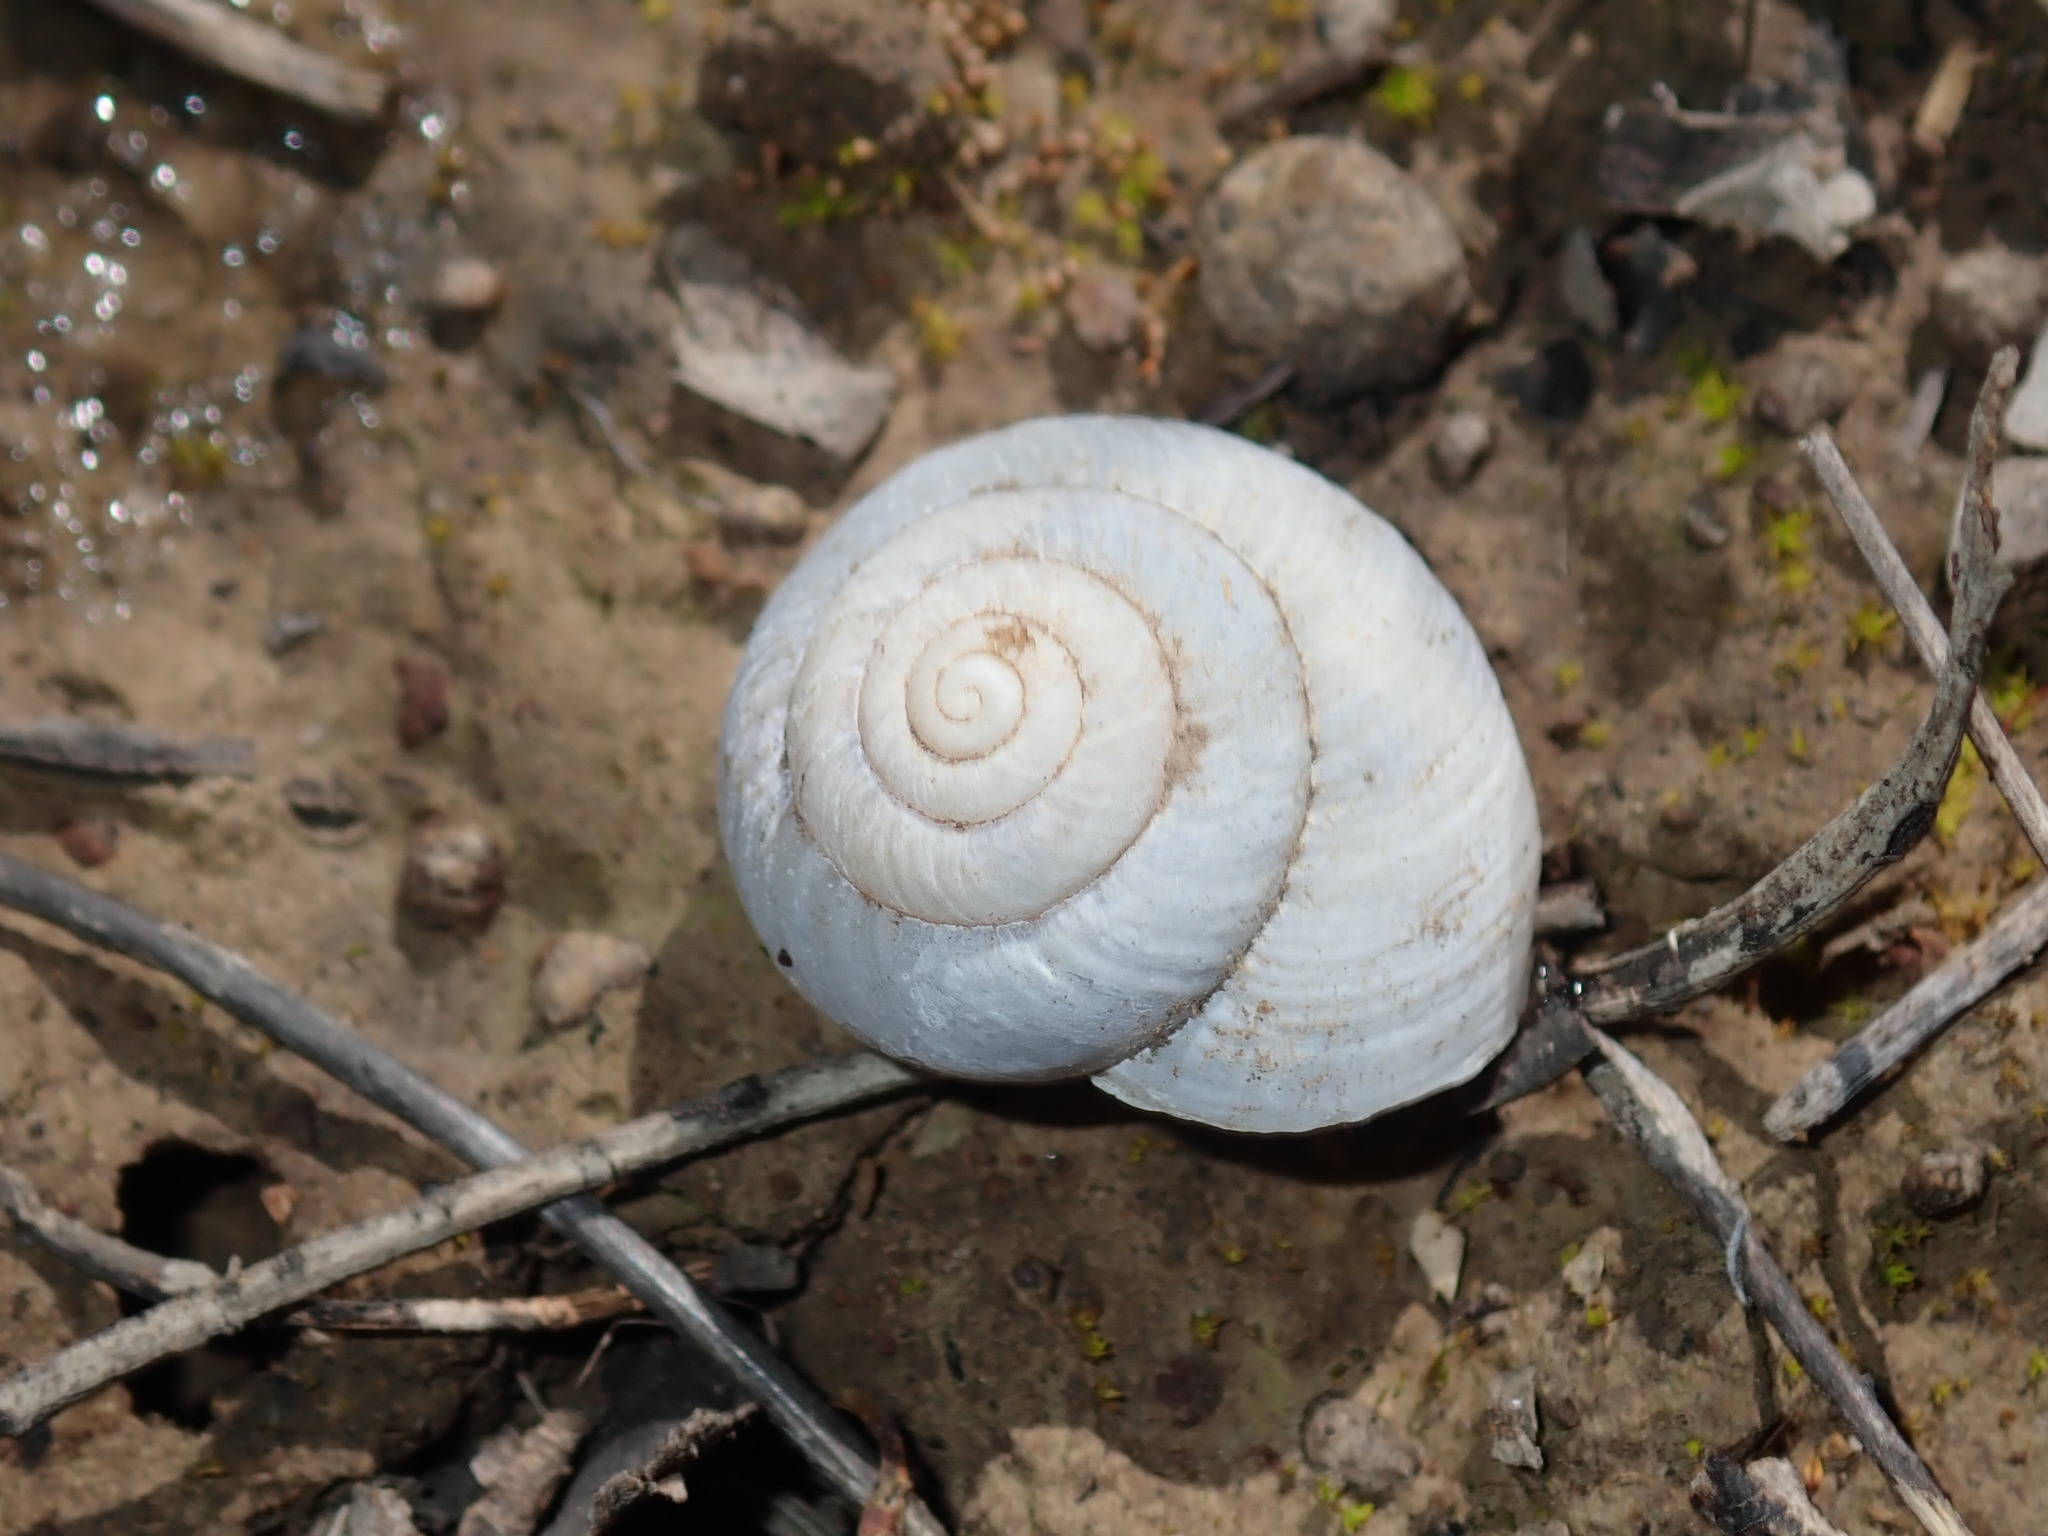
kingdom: Animalia
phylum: Mollusca
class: Gastropoda
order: Stylommatophora
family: Camaenidae
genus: Sauroconcha
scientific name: Sauroconcha sheai
